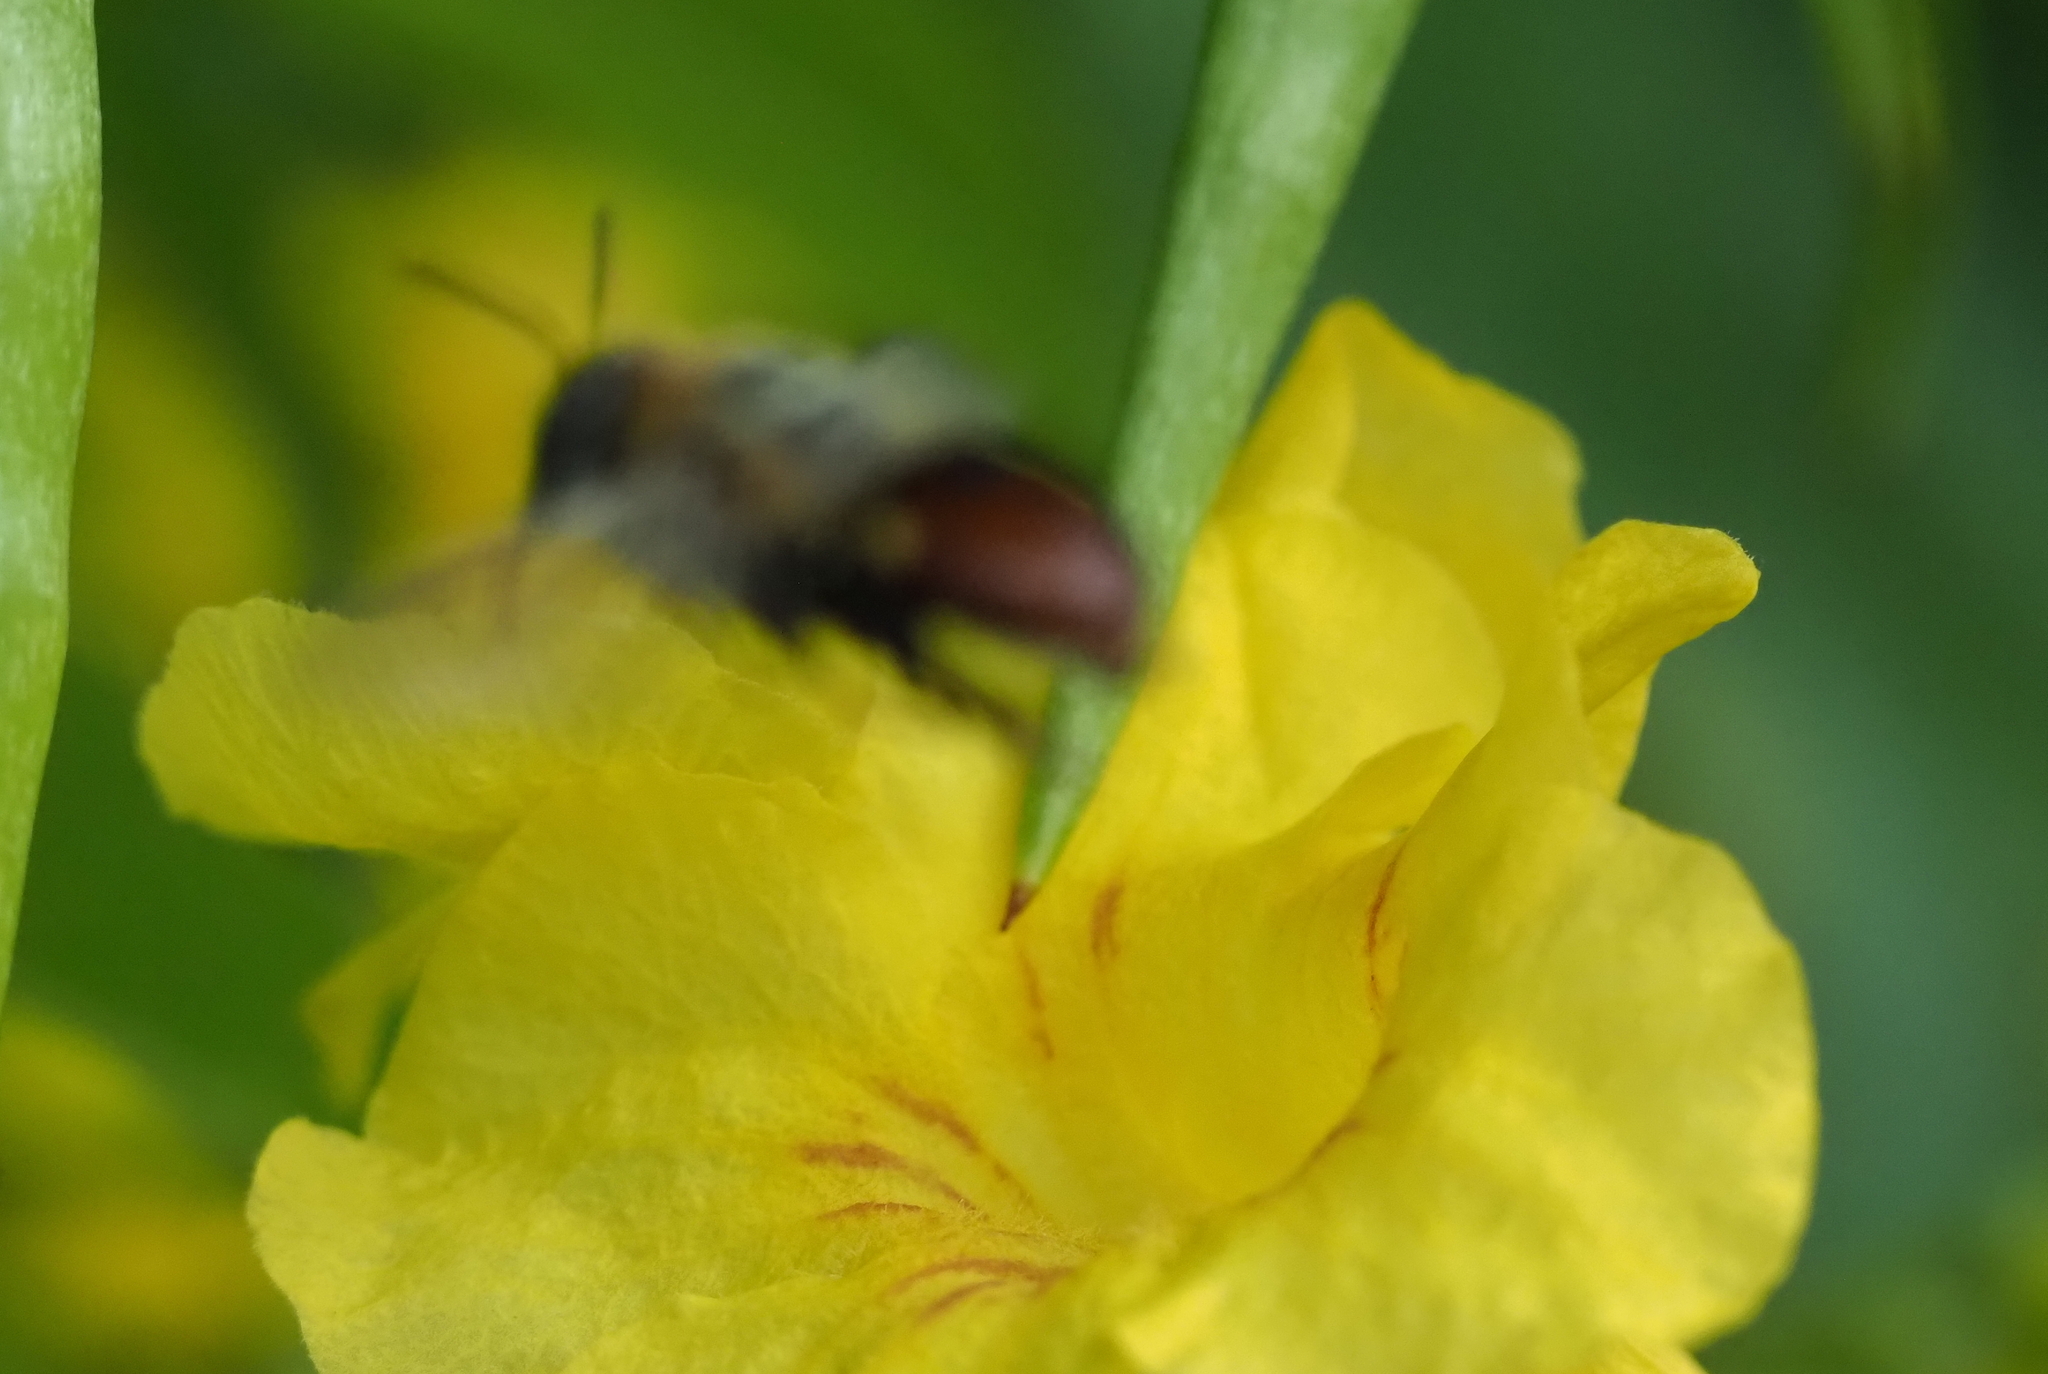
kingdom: Animalia
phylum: Arthropoda
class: Insecta
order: Hymenoptera
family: Apidae
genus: Centris
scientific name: Centris testacea
